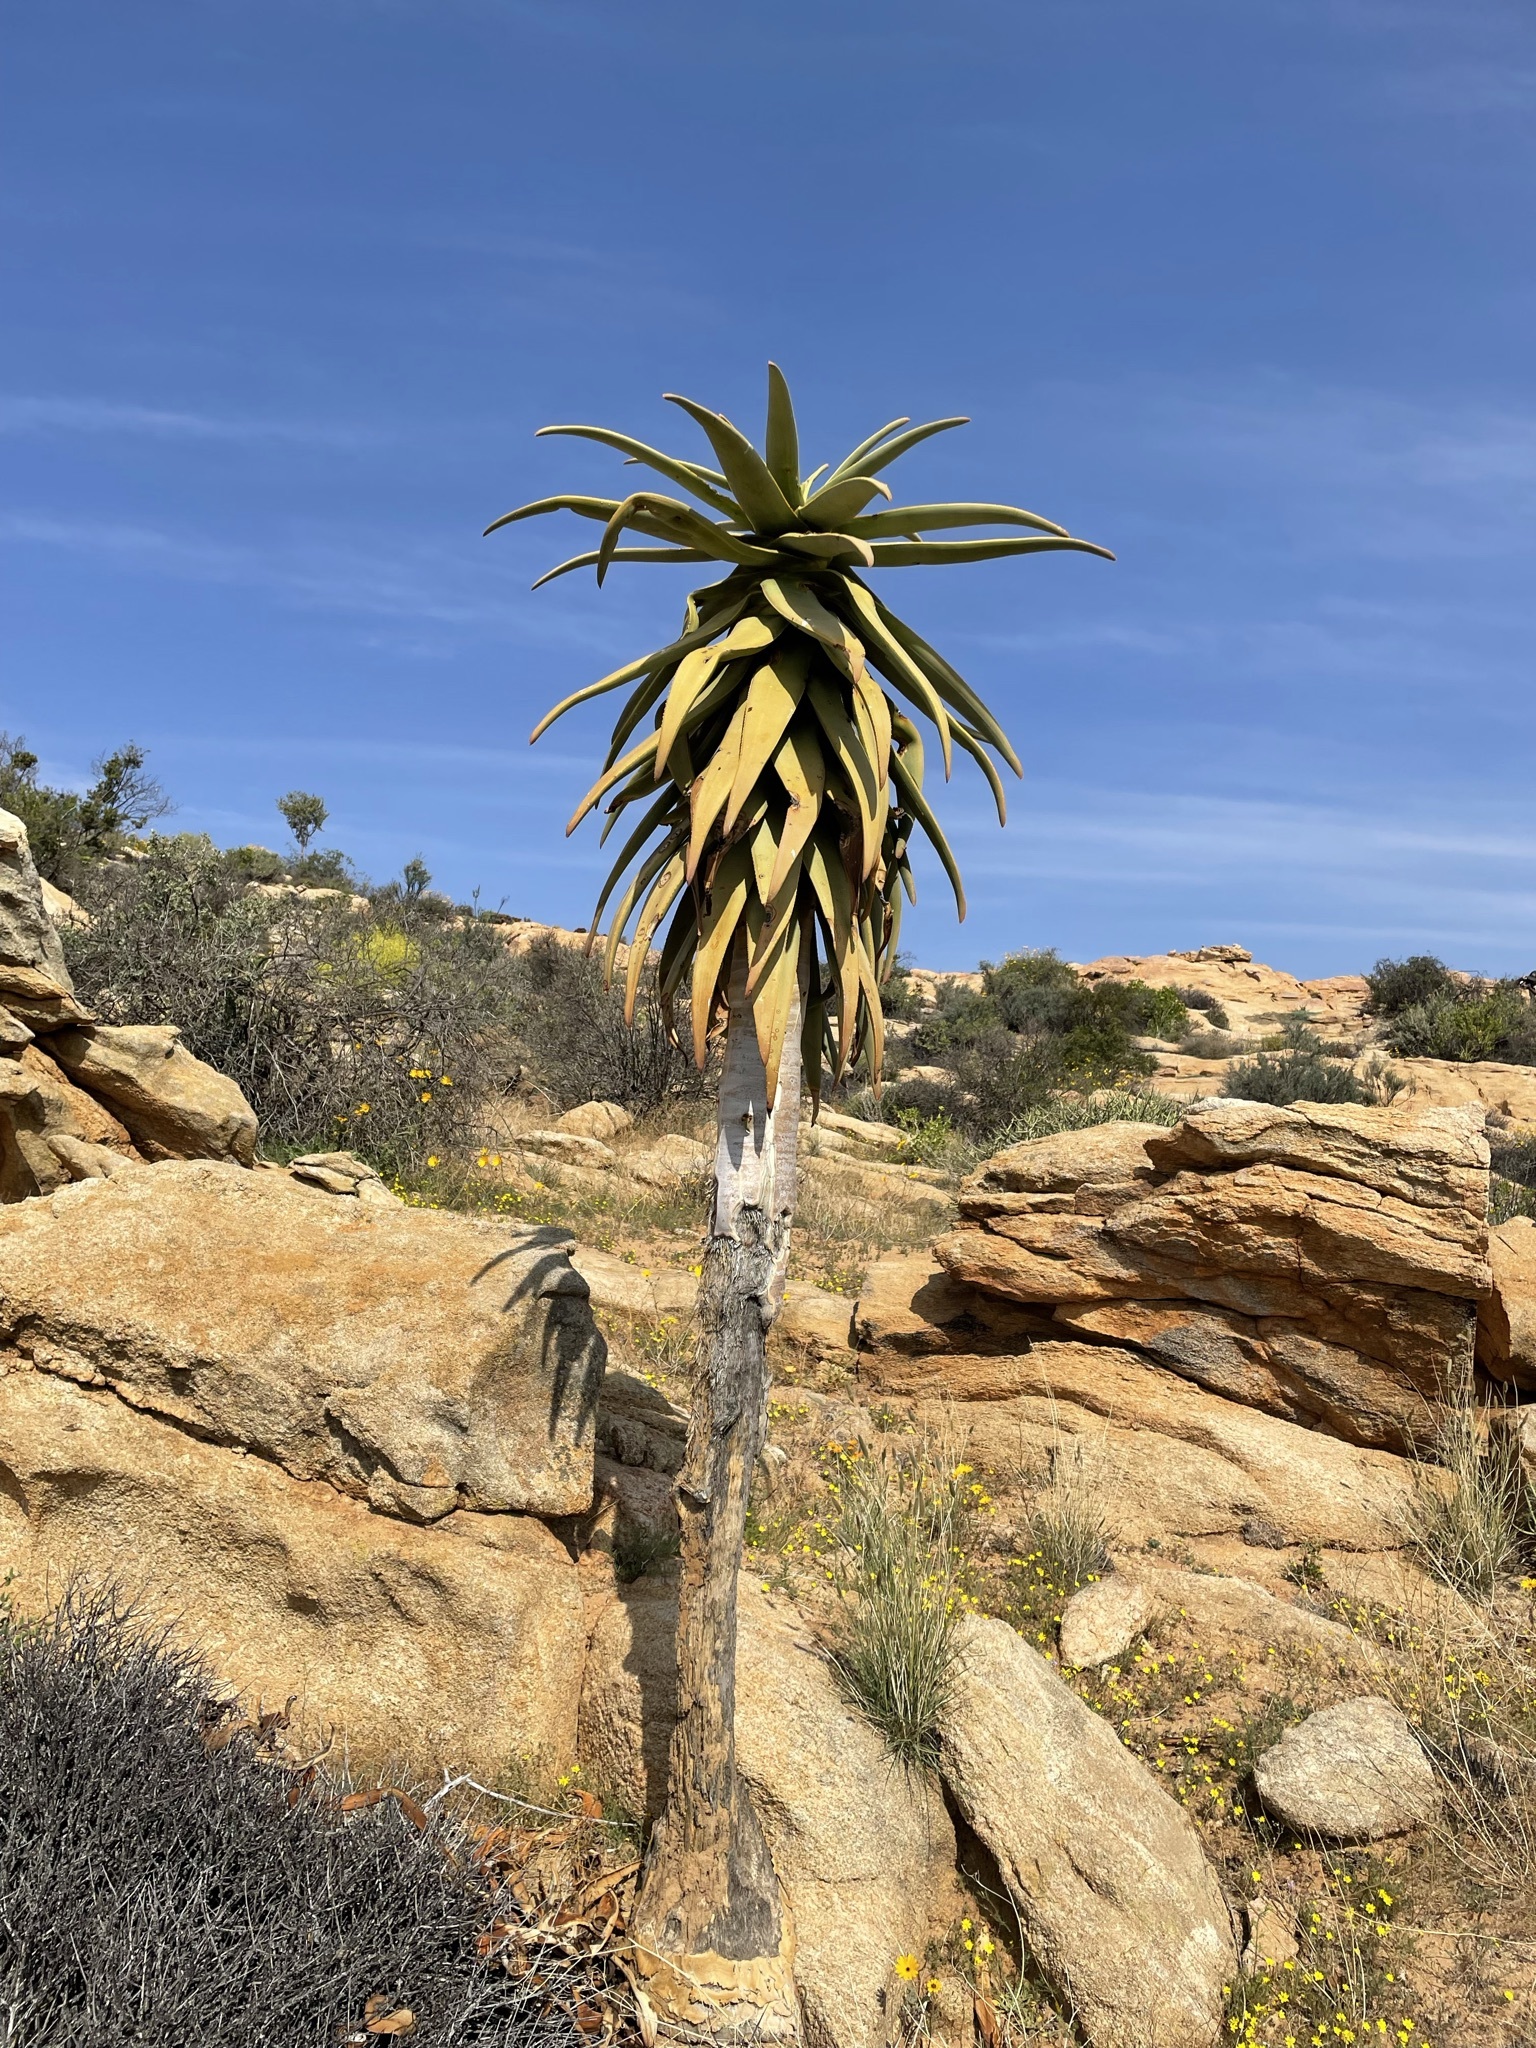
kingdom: Plantae
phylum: Tracheophyta
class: Liliopsida
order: Asparagales
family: Asphodelaceae
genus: Aloidendron
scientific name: Aloidendron dichotomum
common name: Quiver tree
